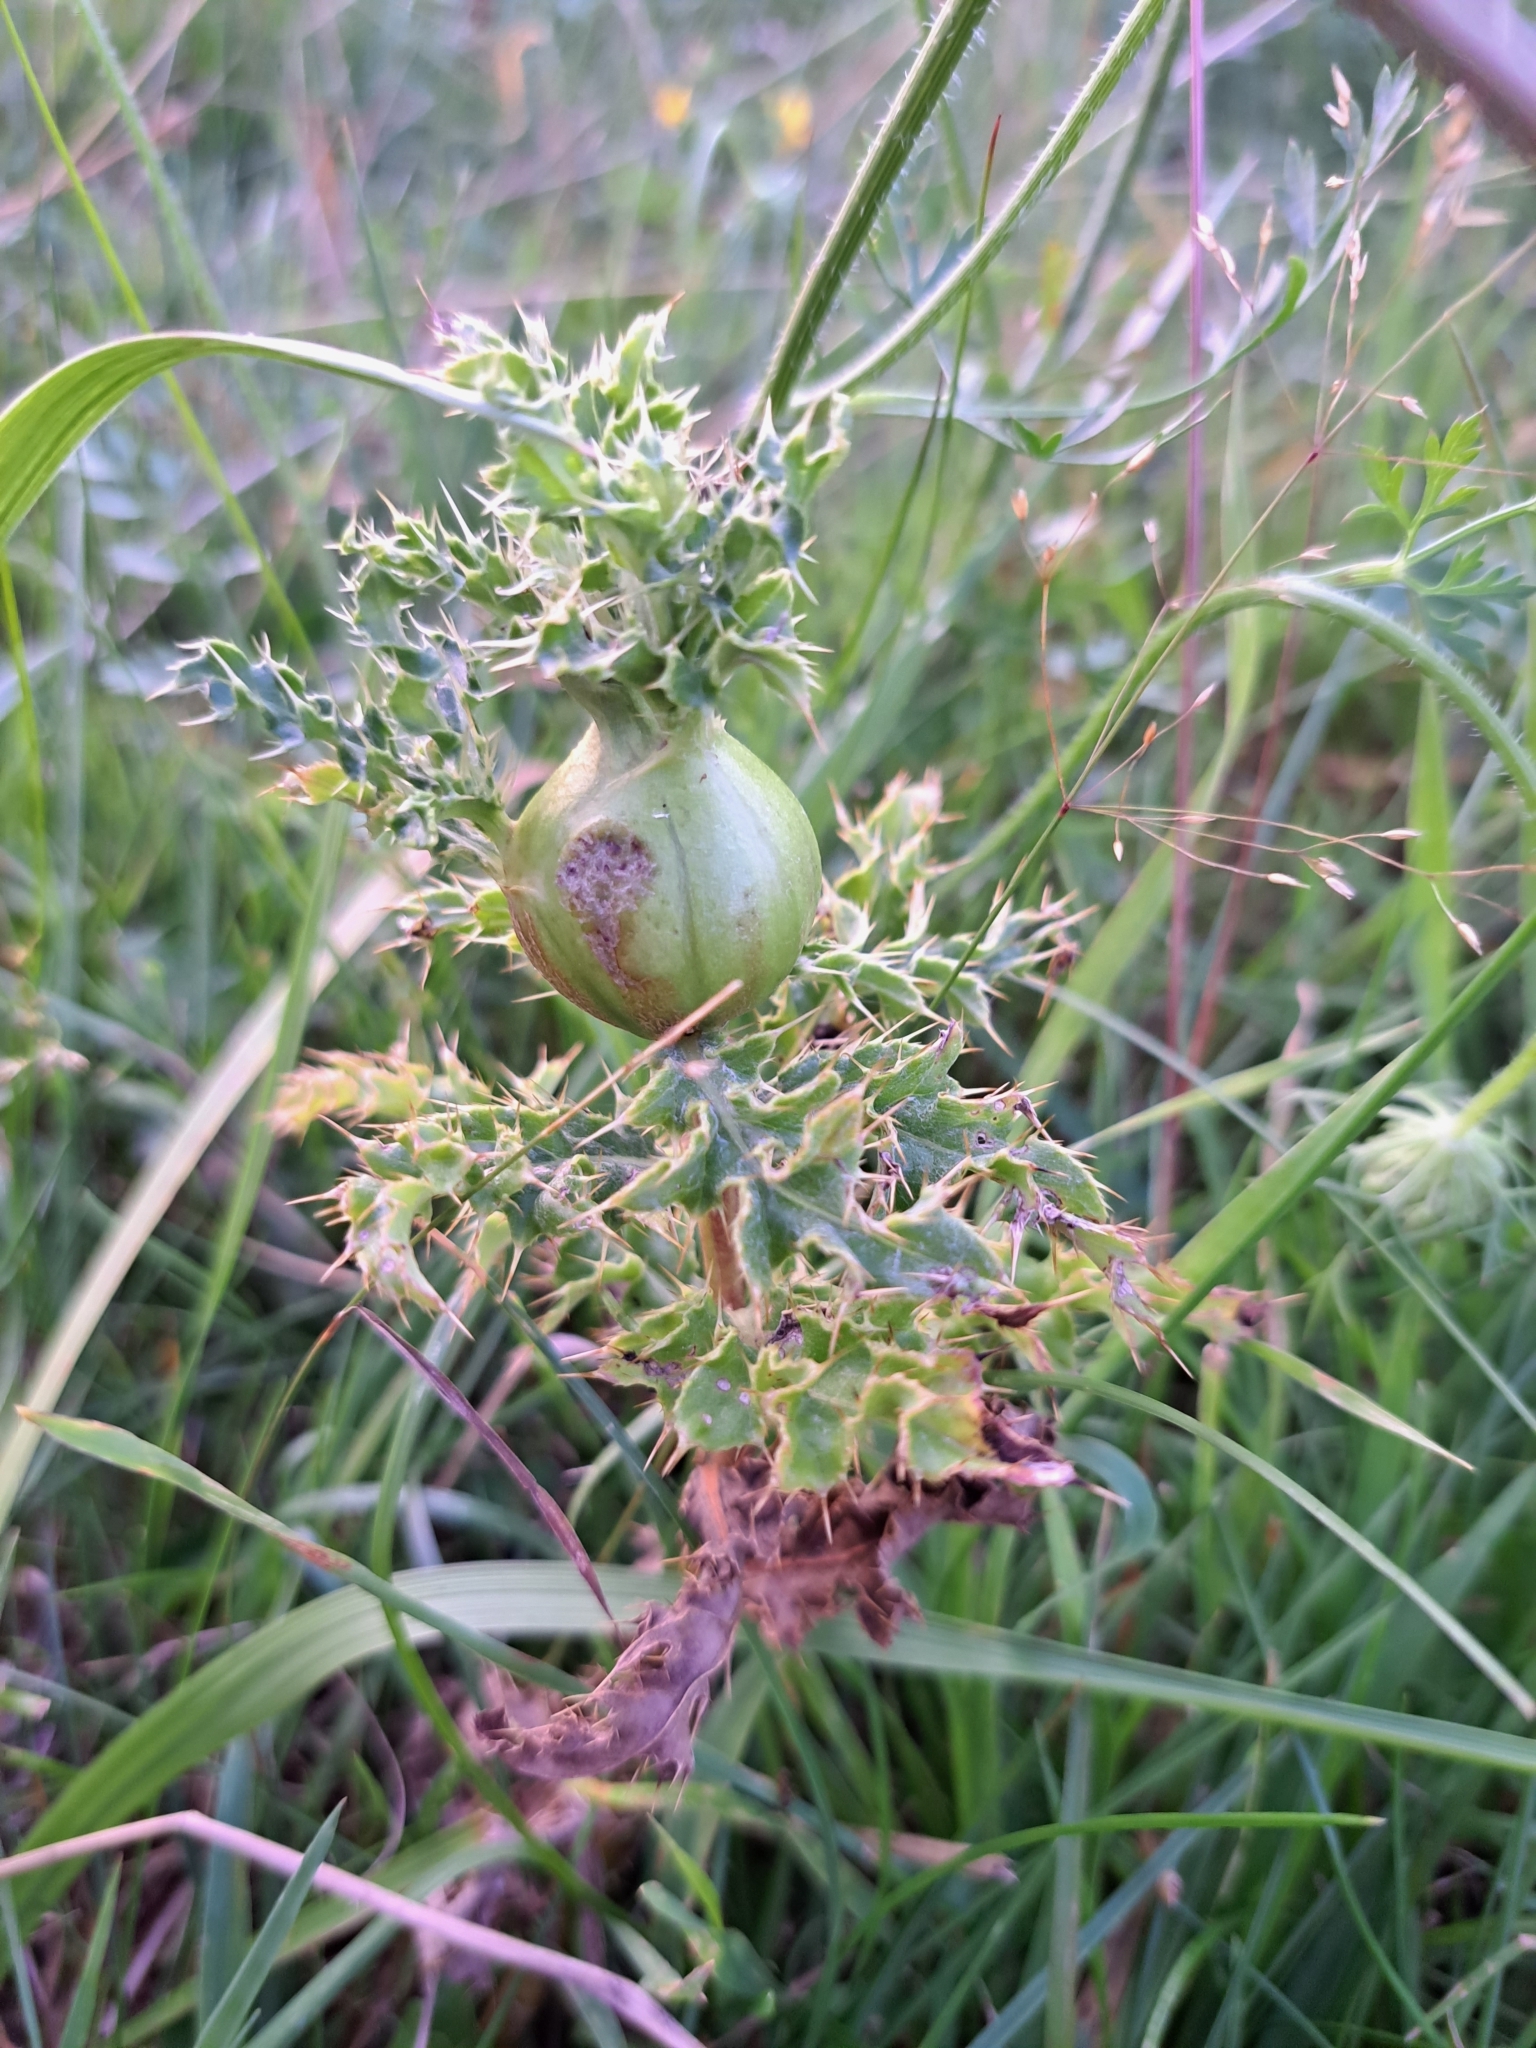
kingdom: Plantae
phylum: Tracheophyta
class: Magnoliopsida
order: Asterales
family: Asteraceae
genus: Cirsium
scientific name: Cirsium arvense
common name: Creeping thistle
